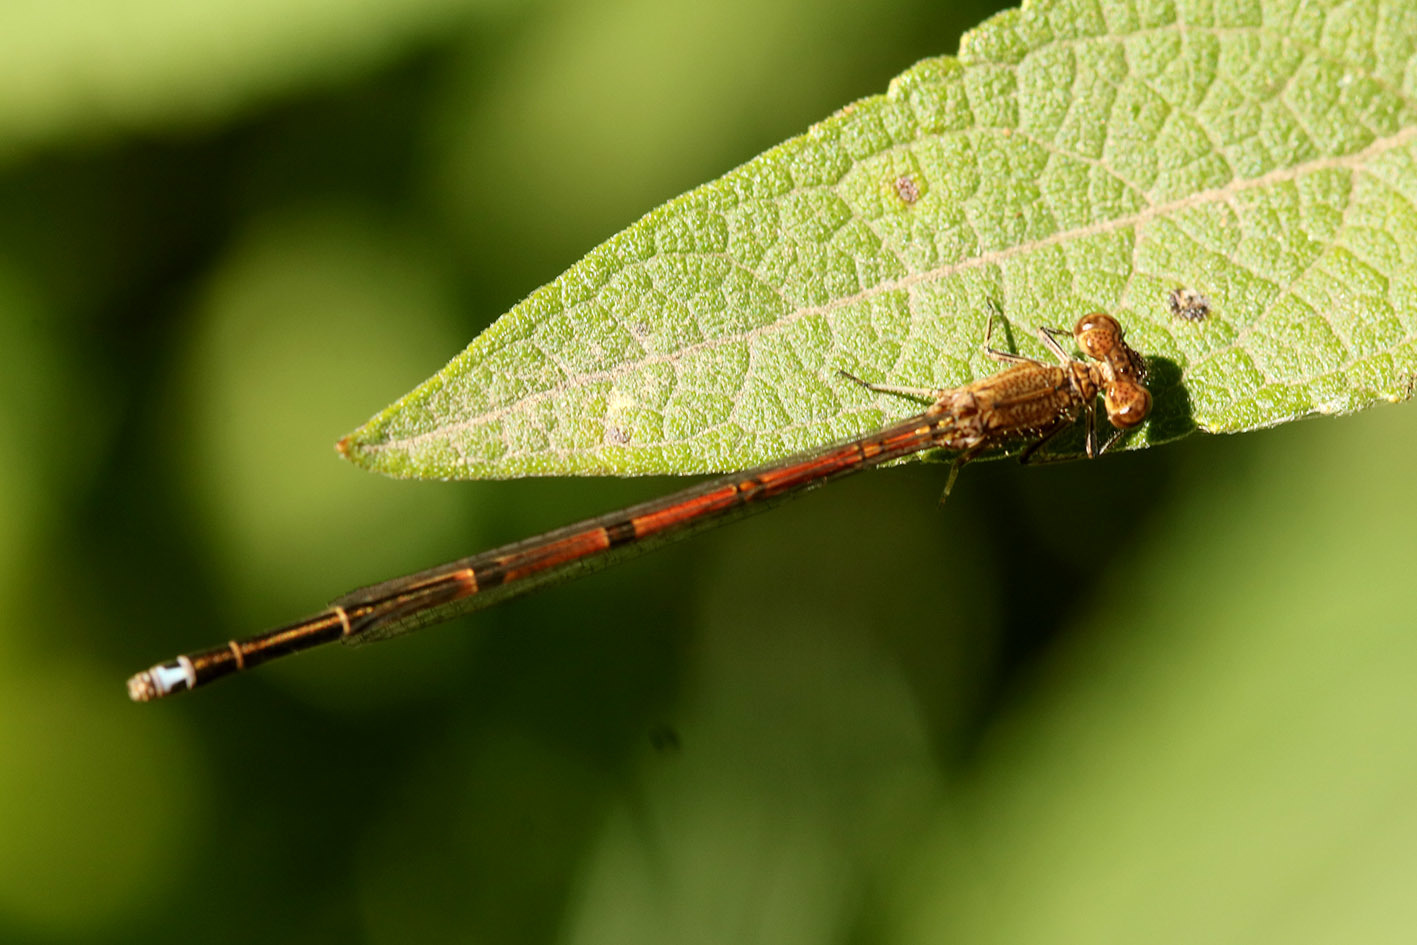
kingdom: Animalia
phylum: Arthropoda
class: Insecta
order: Odonata
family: Coenagrionidae
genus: Oxyagrion
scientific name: Oxyagrion terminale
